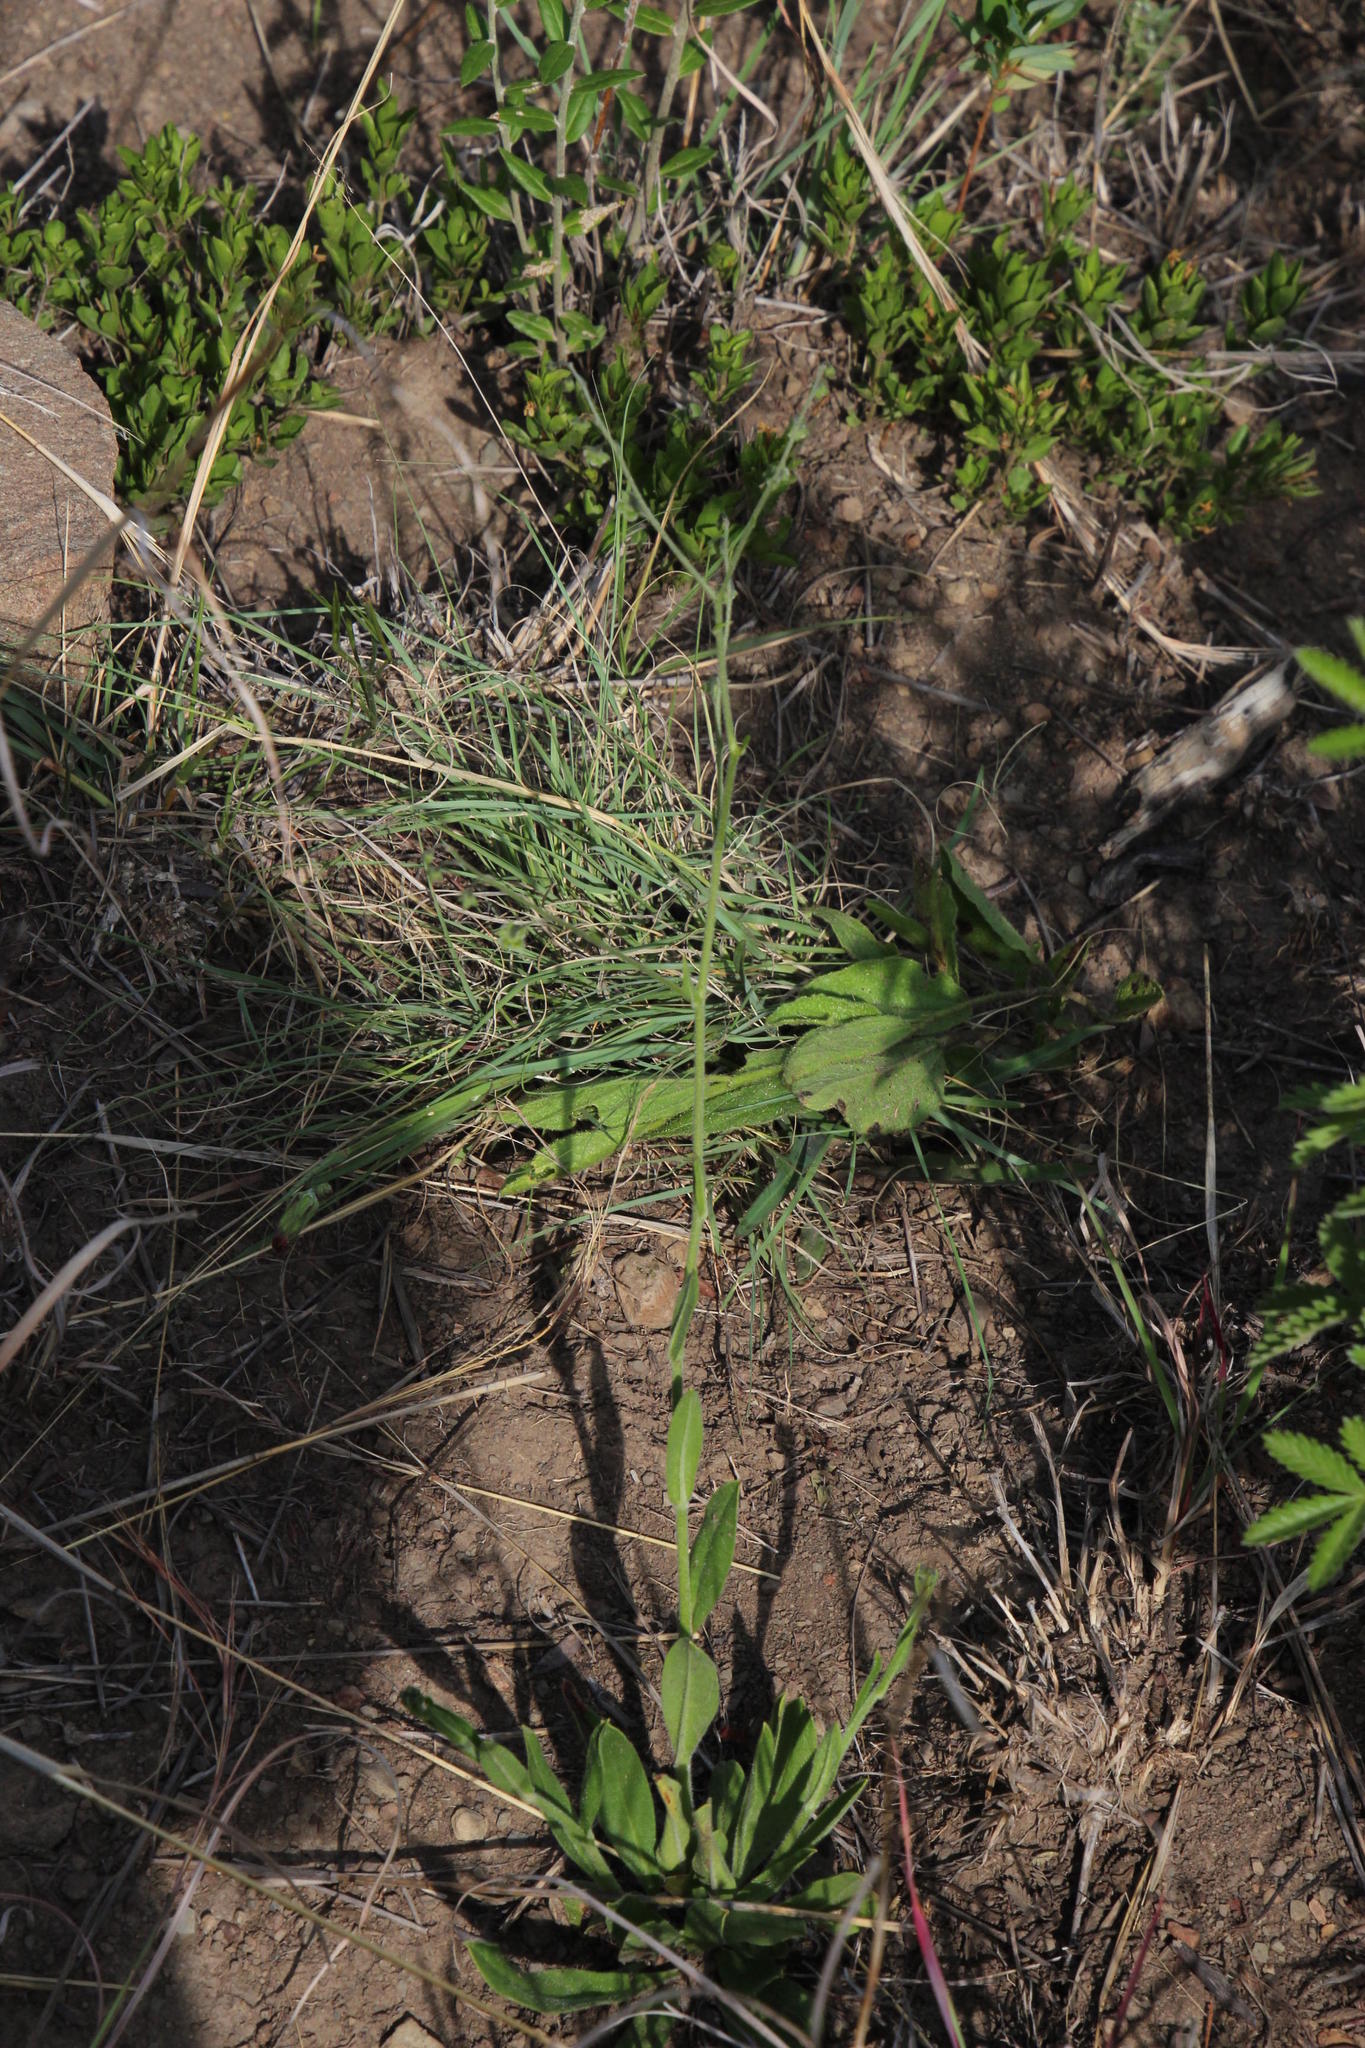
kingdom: Plantae
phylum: Tracheophyta
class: Magnoliopsida
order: Boraginales
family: Boraginaceae
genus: Cynoglossum
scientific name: Cynoglossum hispidum
